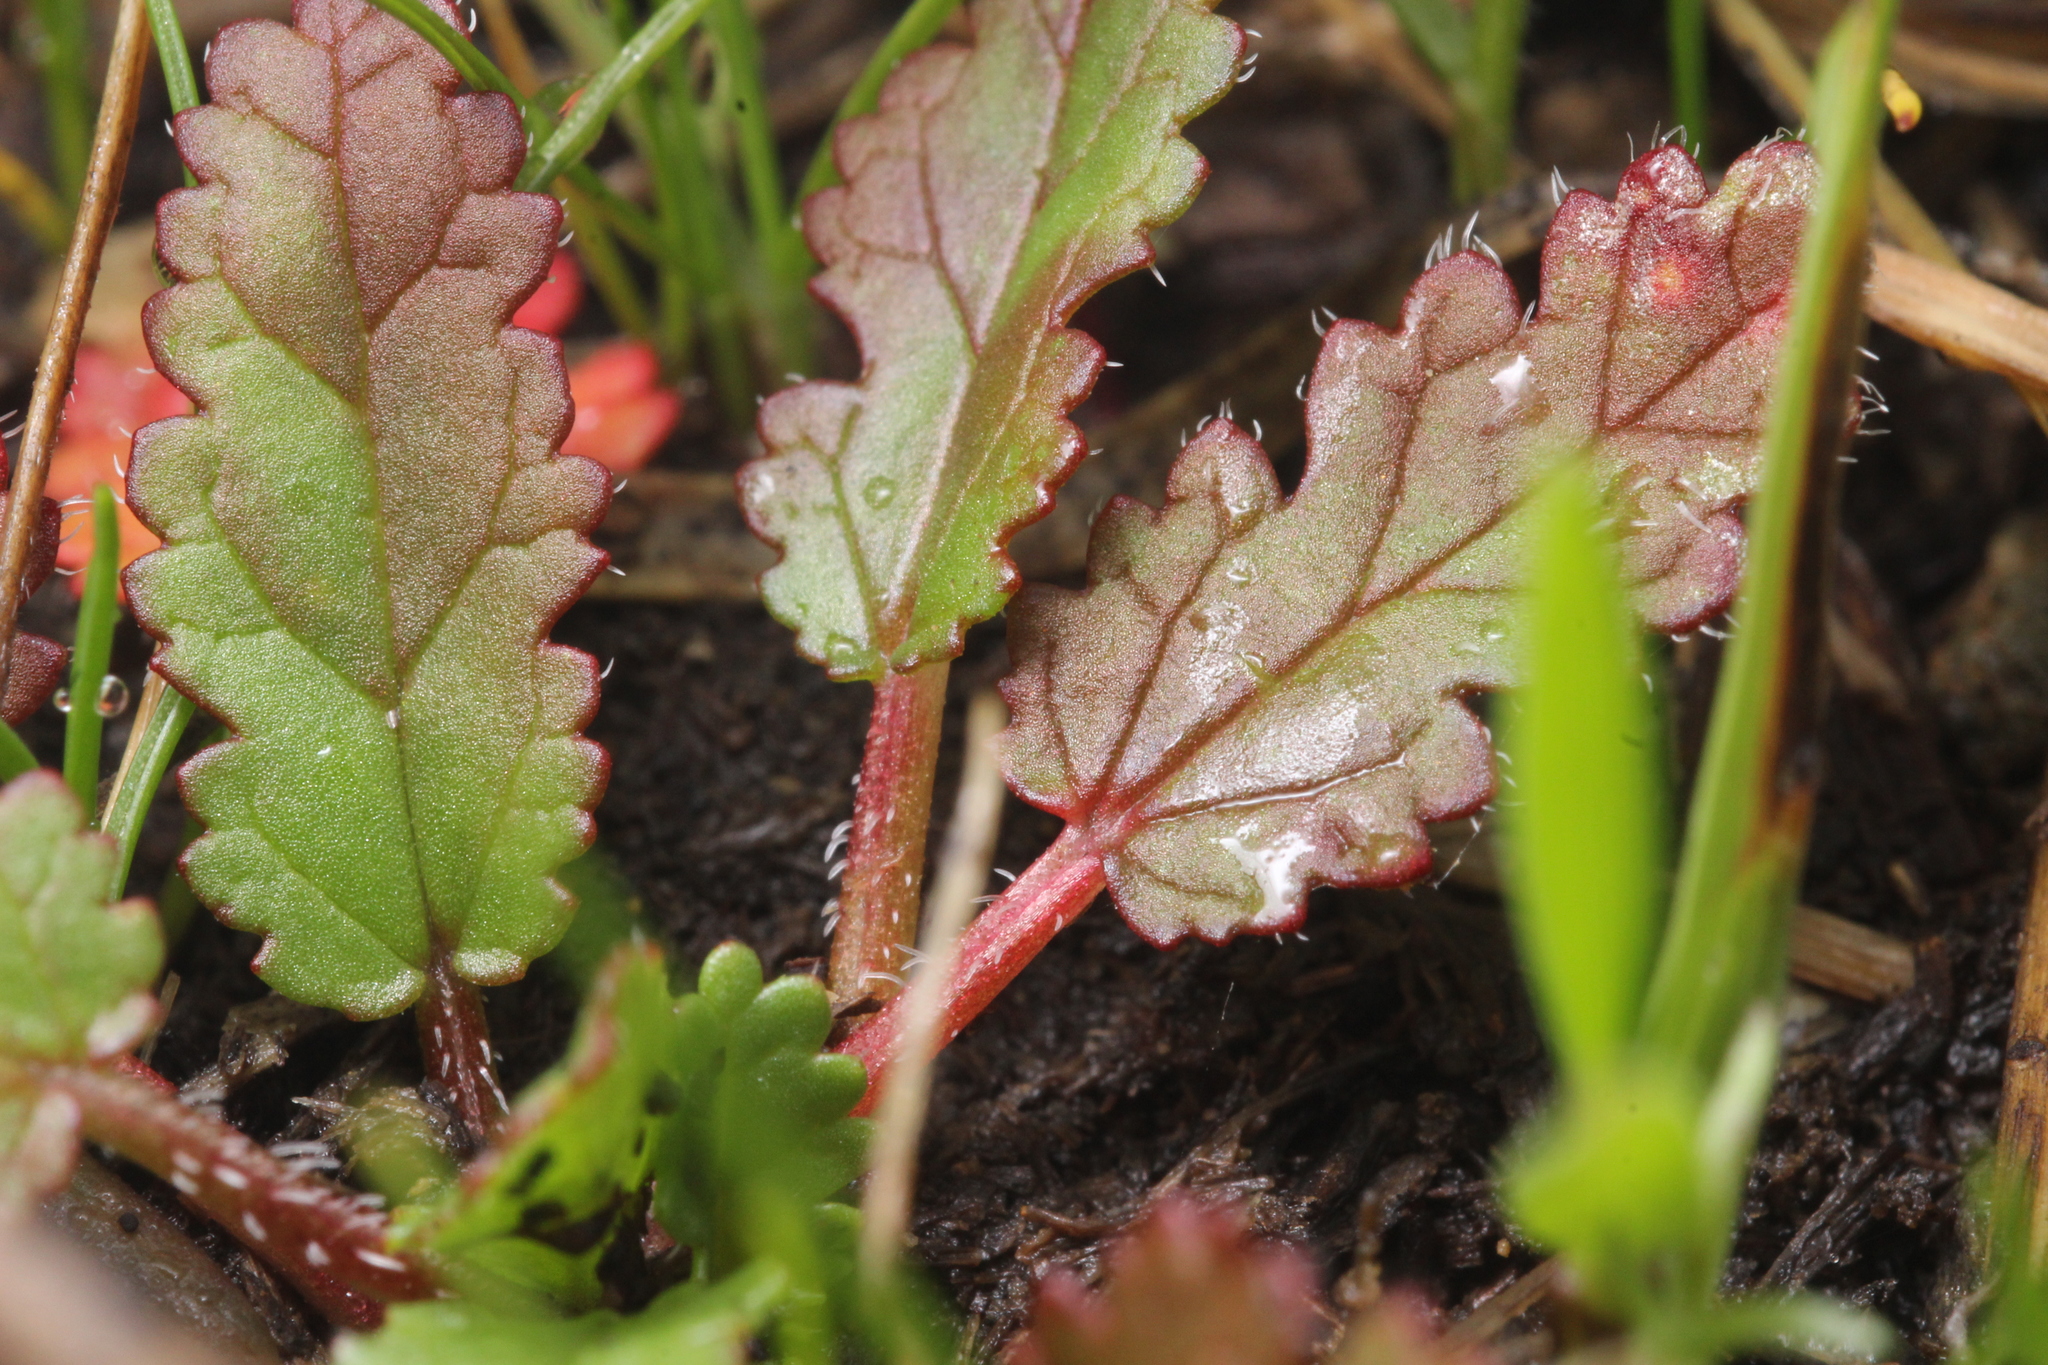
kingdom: Plantae
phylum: Tracheophyta
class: Magnoliopsida
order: Geraniales
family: Geraniaceae
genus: Erodium
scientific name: Erodium
